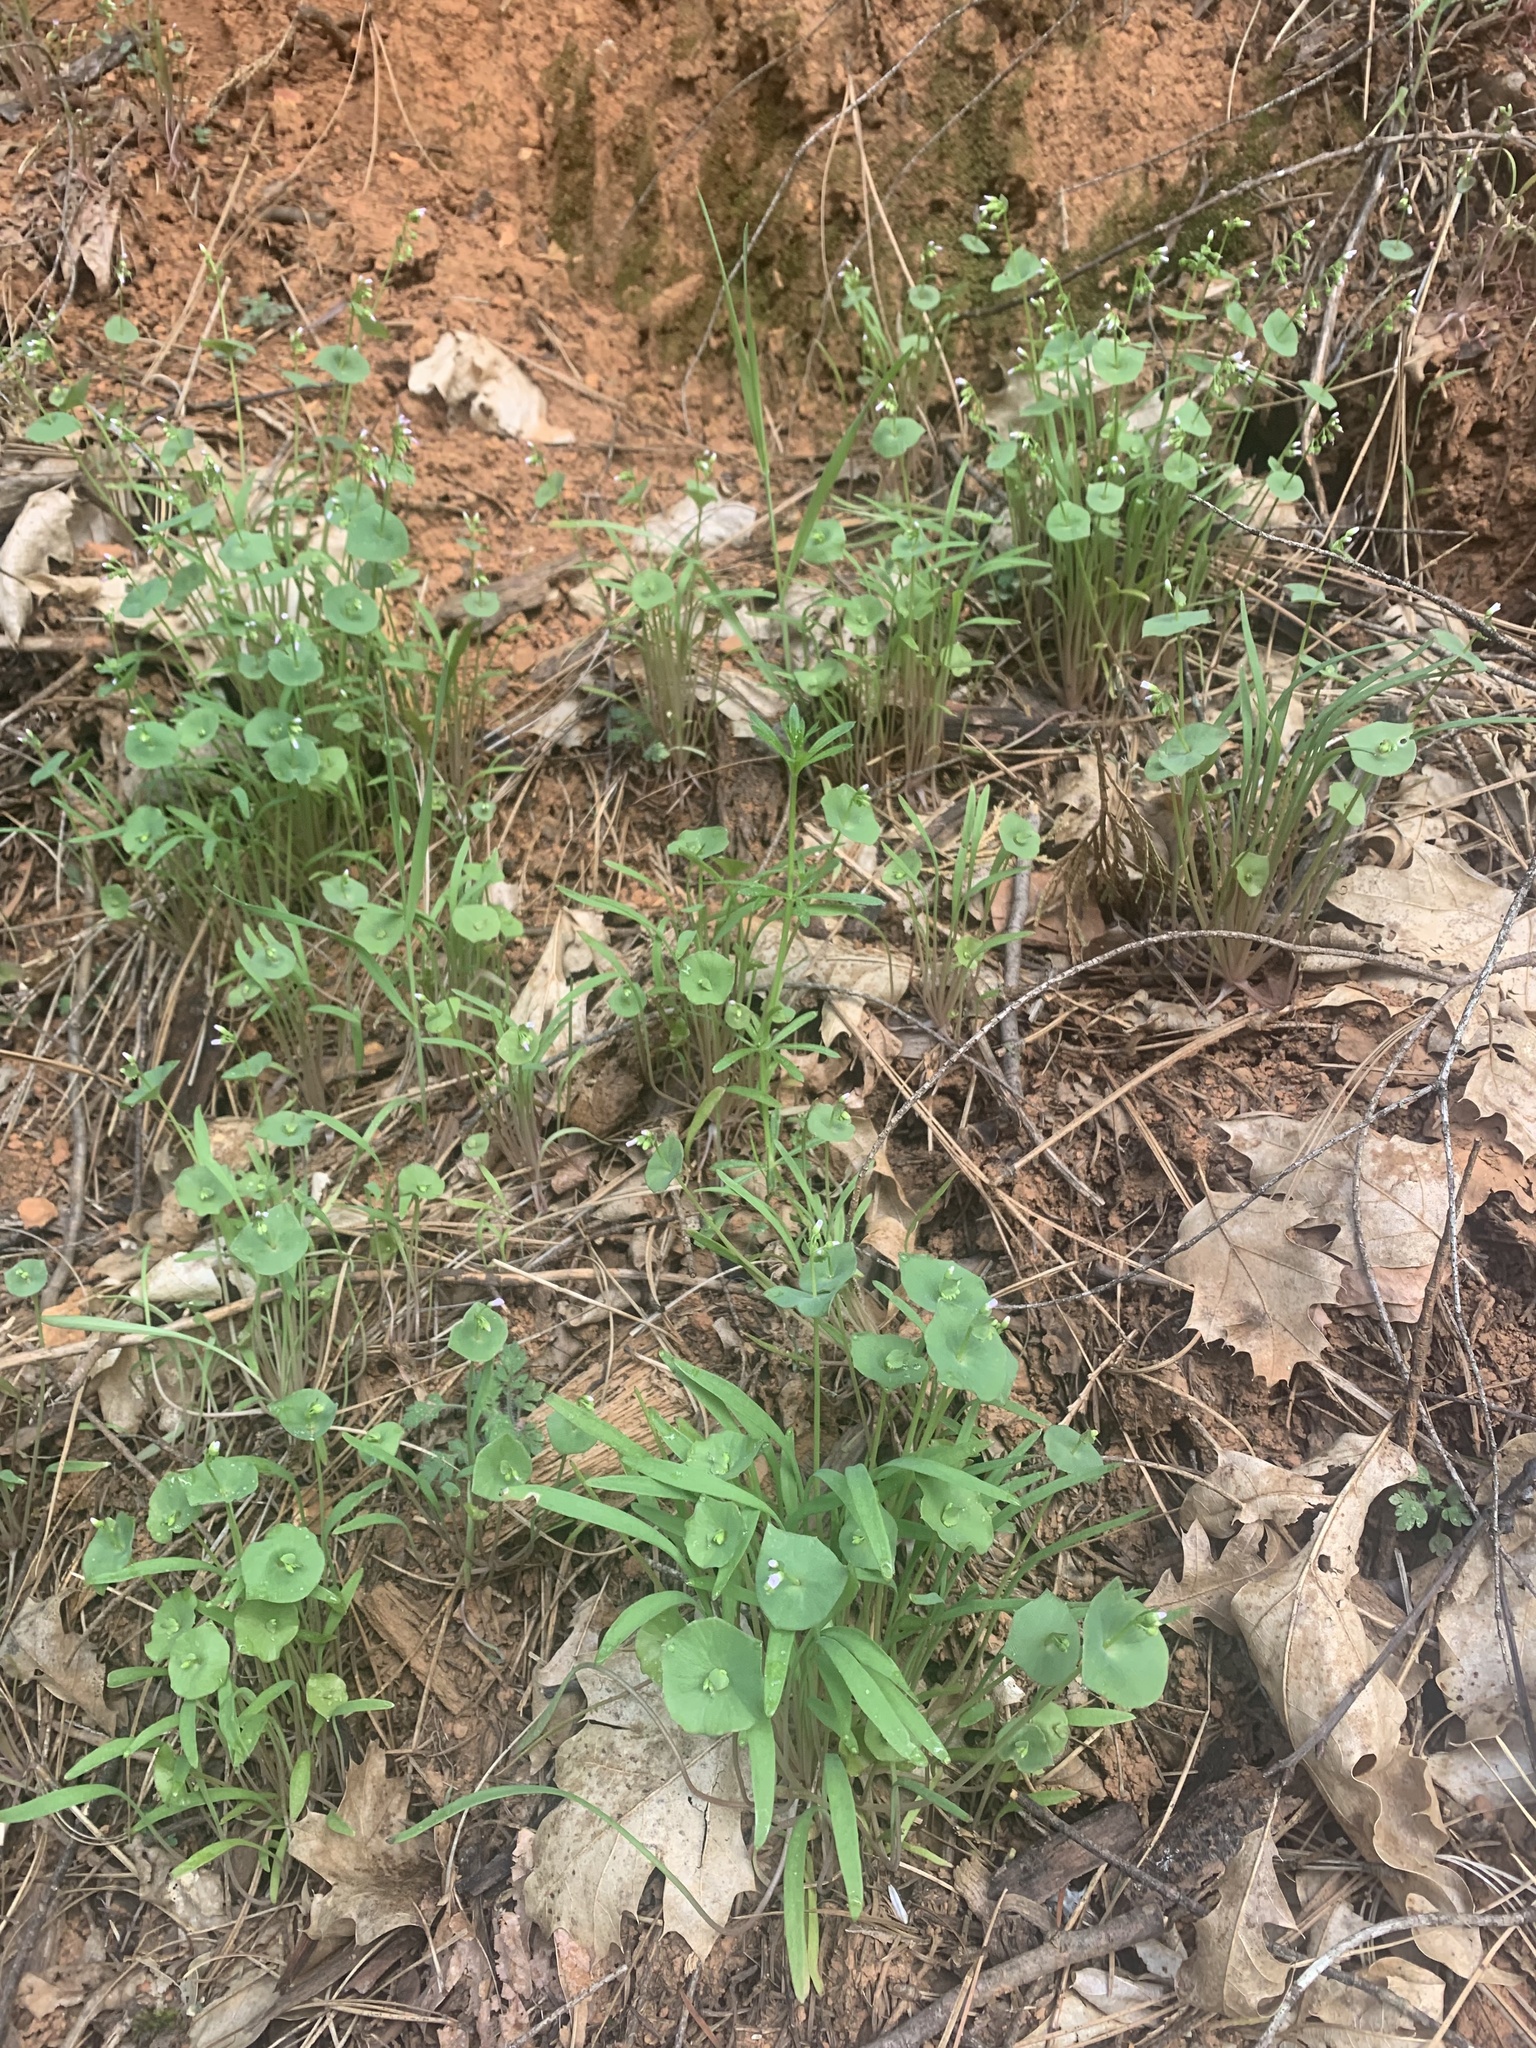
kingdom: Plantae
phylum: Tracheophyta
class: Magnoliopsida
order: Caryophyllales
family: Montiaceae
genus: Claytonia
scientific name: Claytonia parviflora
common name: Indian-lettuce
